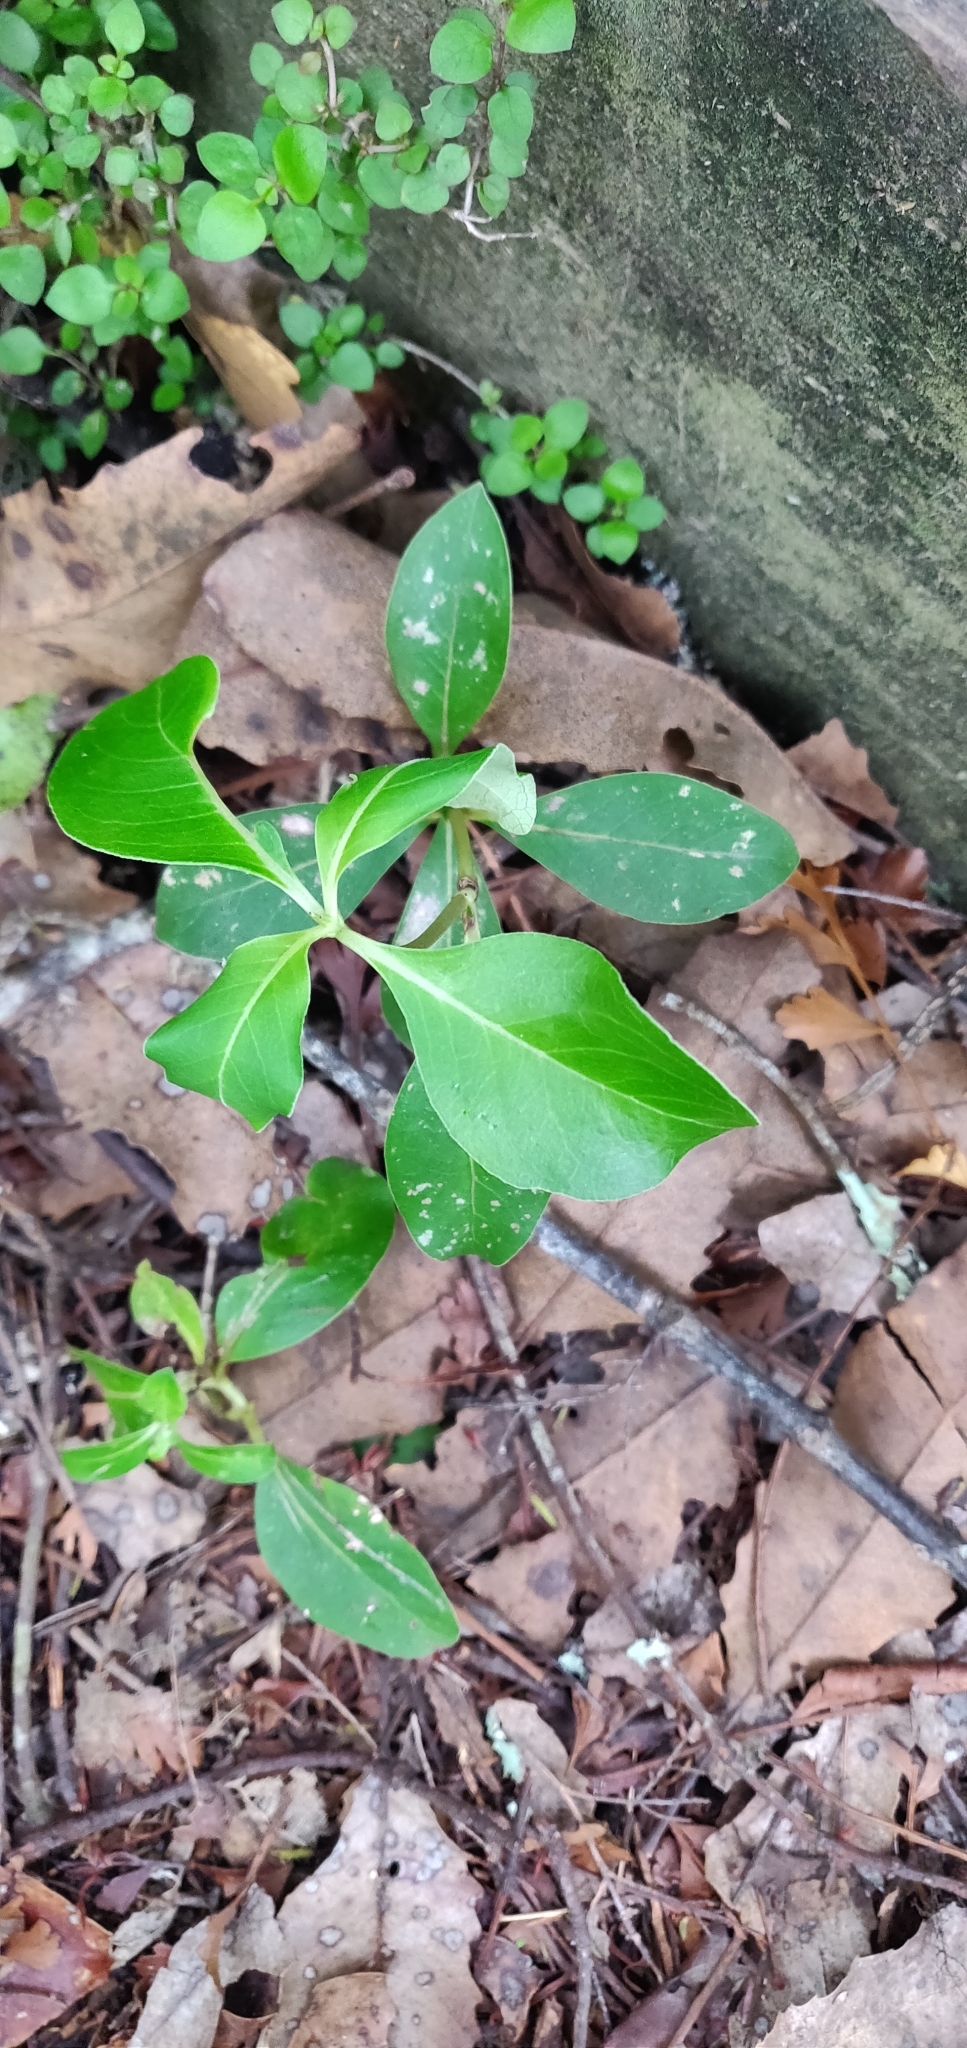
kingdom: Plantae
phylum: Tracheophyta
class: Magnoliopsida
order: Gentianales
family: Rubiaceae
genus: Coprosma
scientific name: Coprosma robusta
